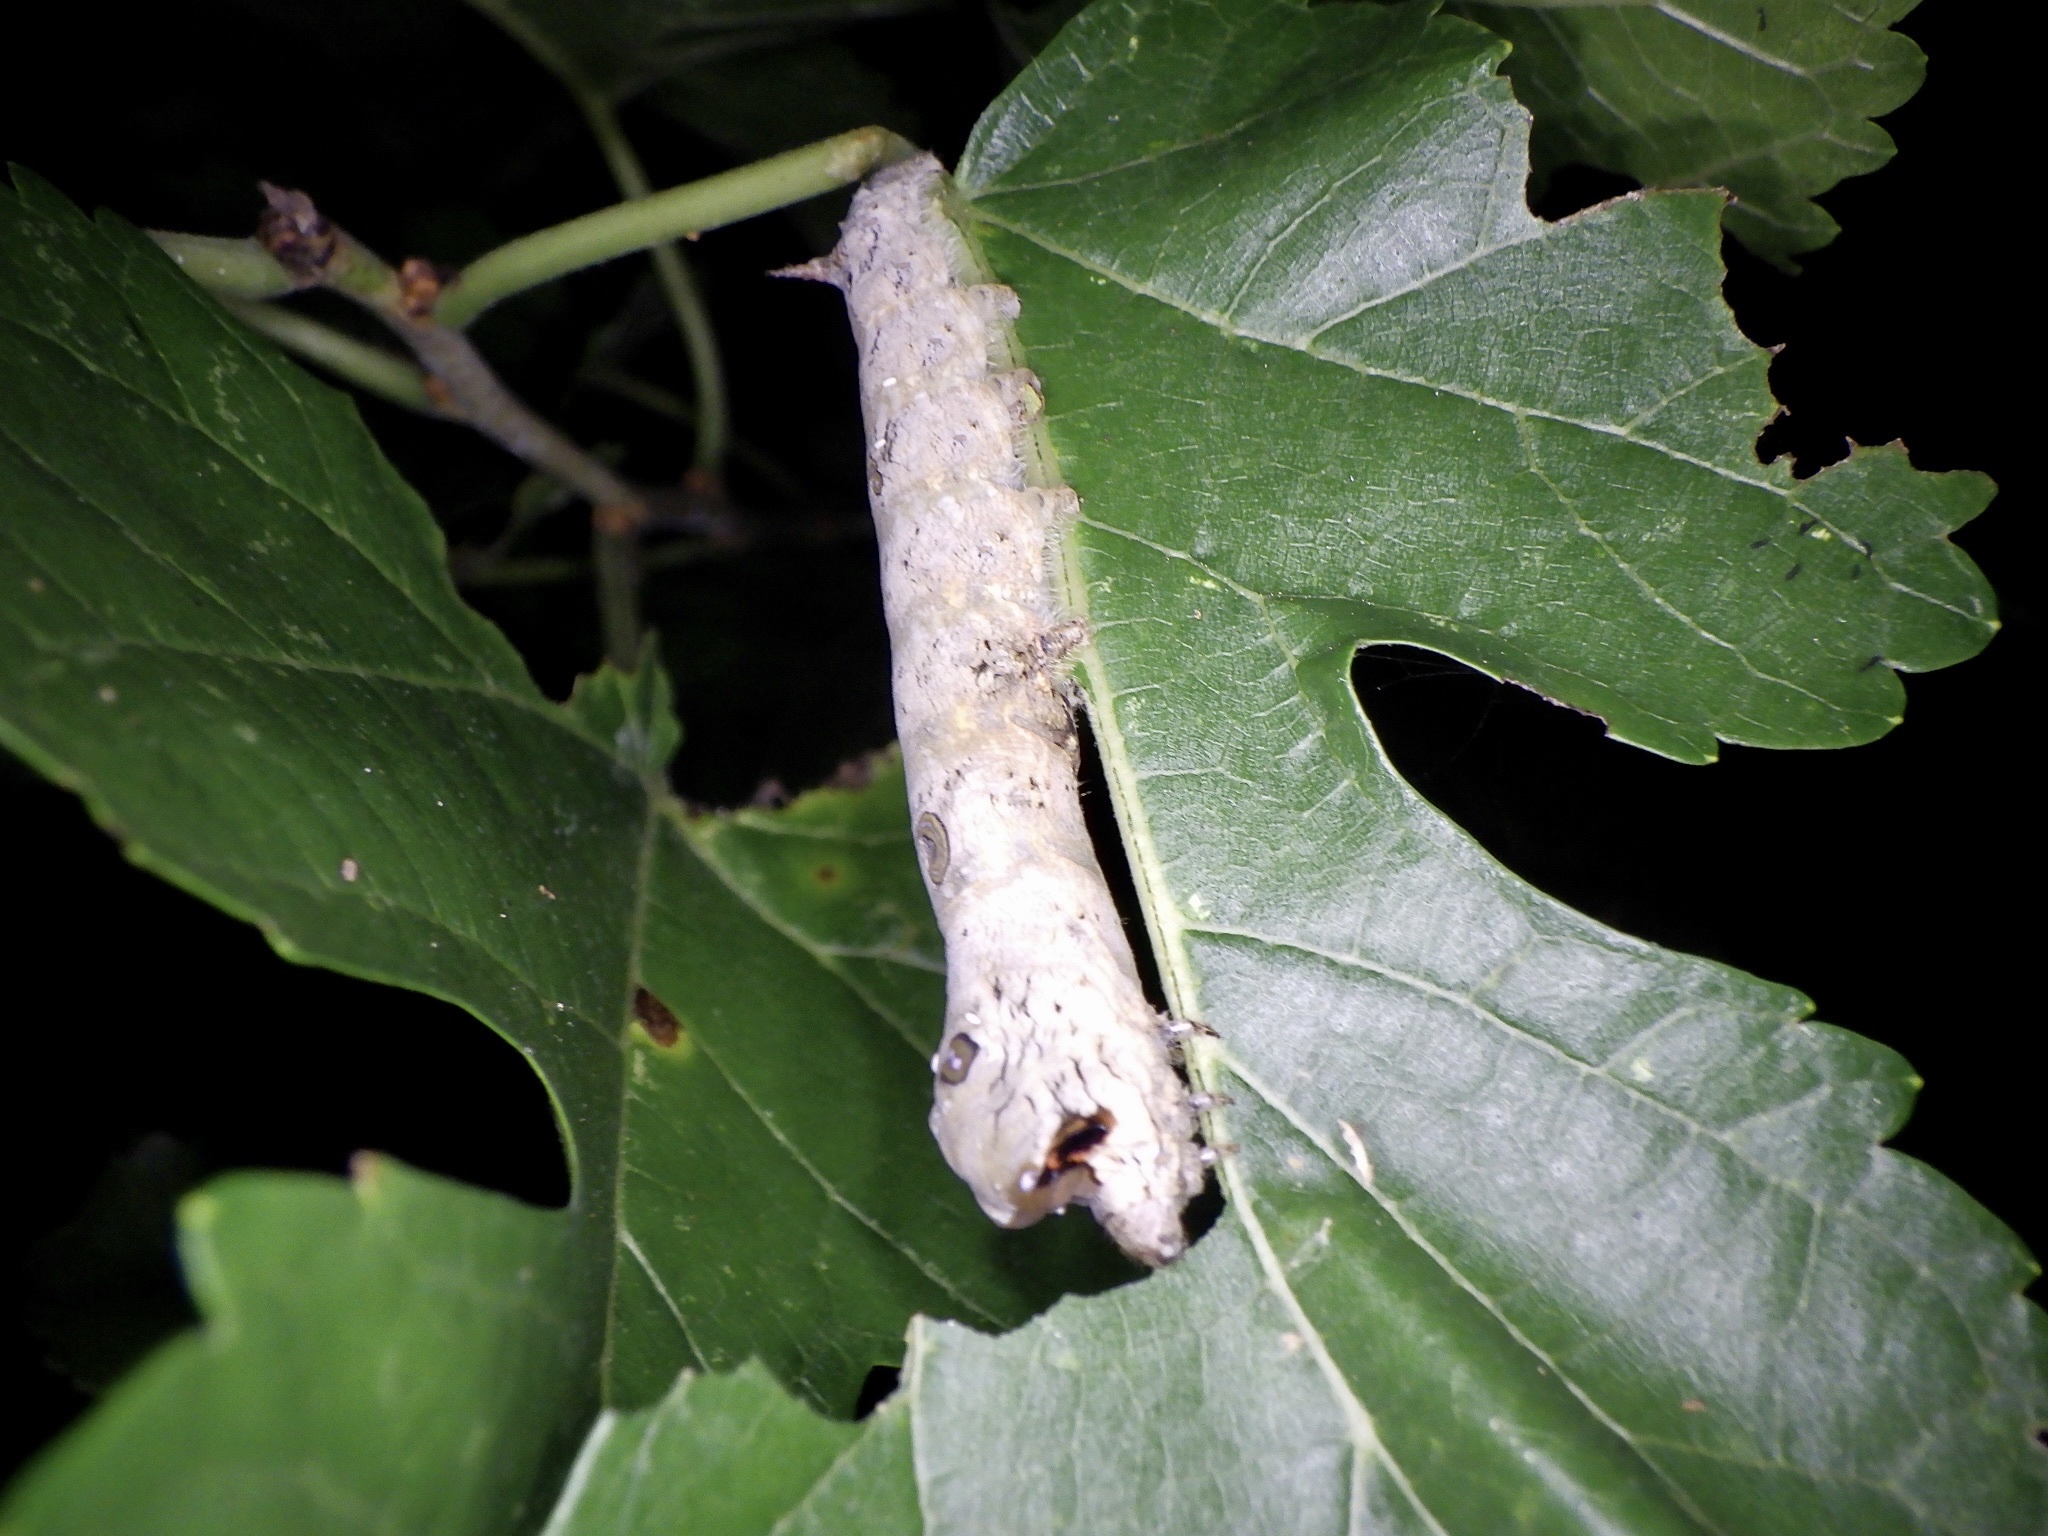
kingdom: Animalia
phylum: Arthropoda
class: Insecta
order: Lepidoptera
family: Bombycidae
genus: Bombyx
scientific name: Bombyx mandarina
